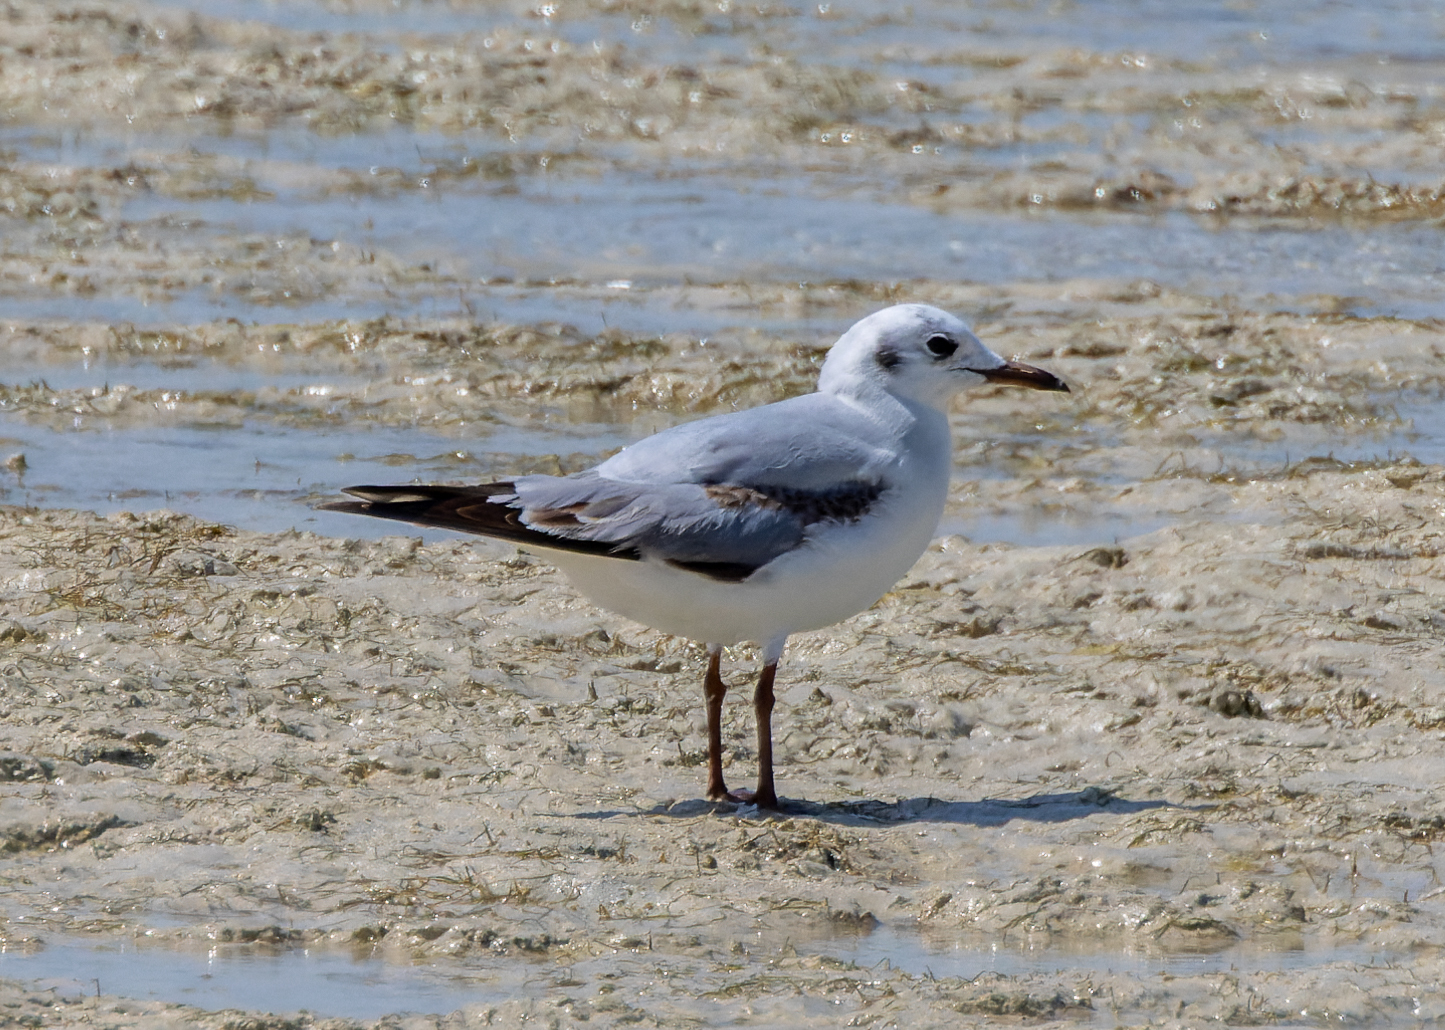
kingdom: Animalia
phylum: Chordata
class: Aves
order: Charadriiformes
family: Laridae
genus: Chroicocephalus
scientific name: Chroicocephalus ridibundus
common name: Black-headed gull
